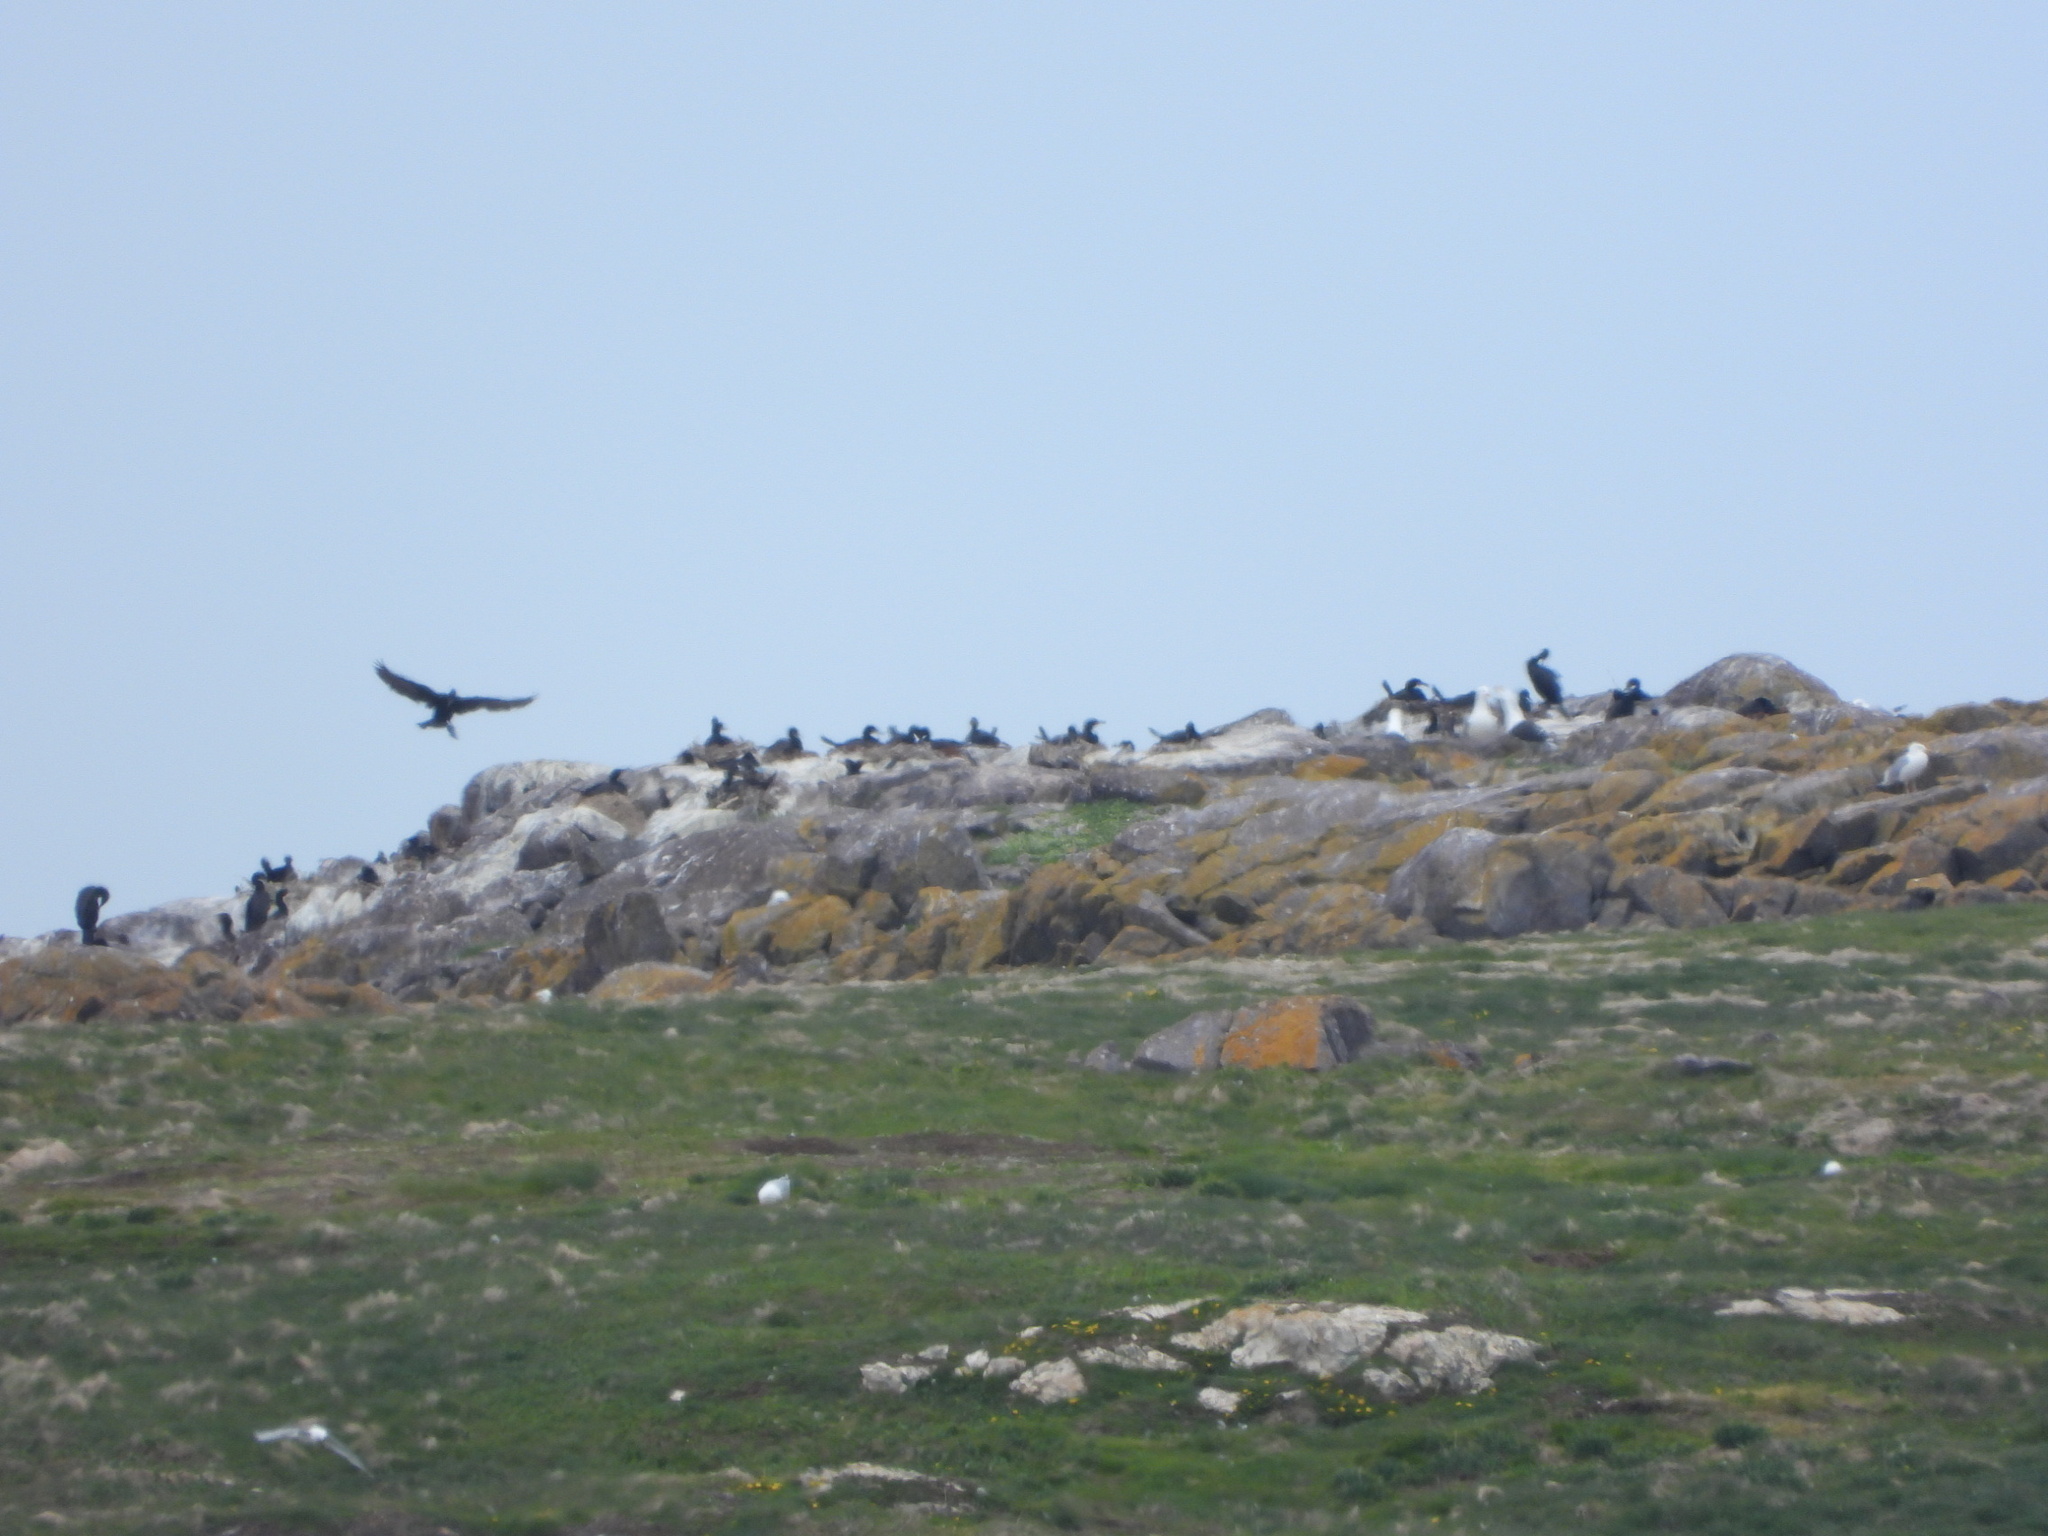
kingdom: Animalia
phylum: Chordata
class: Aves
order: Suliformes
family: Phalacrocoracidae
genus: Phalacrocorax
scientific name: Phalacrocorax auritus
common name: Double-crested cormorant
